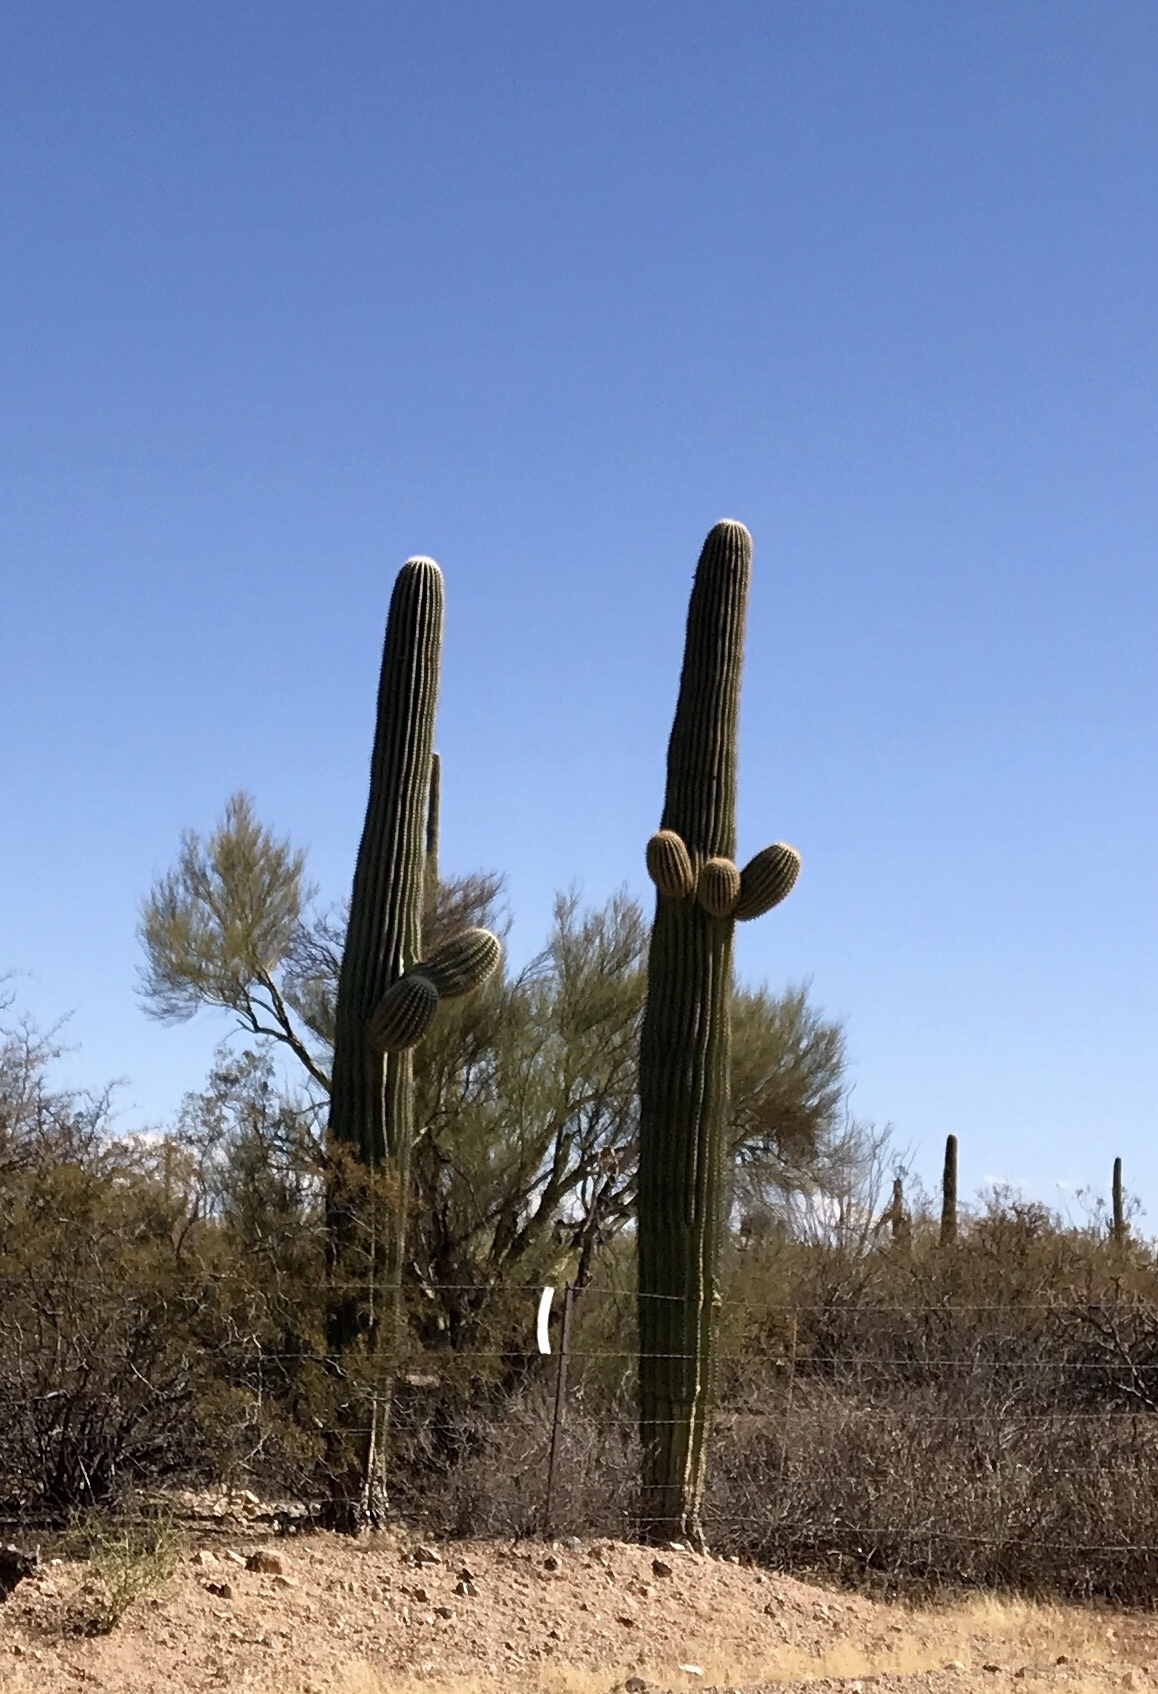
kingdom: Plantae
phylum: Tracheophyta
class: Magnoliopsida
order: Caryophyllales
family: Cactaceae
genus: Carnegiea
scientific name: Carnegiea gigantea
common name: Saguaro
